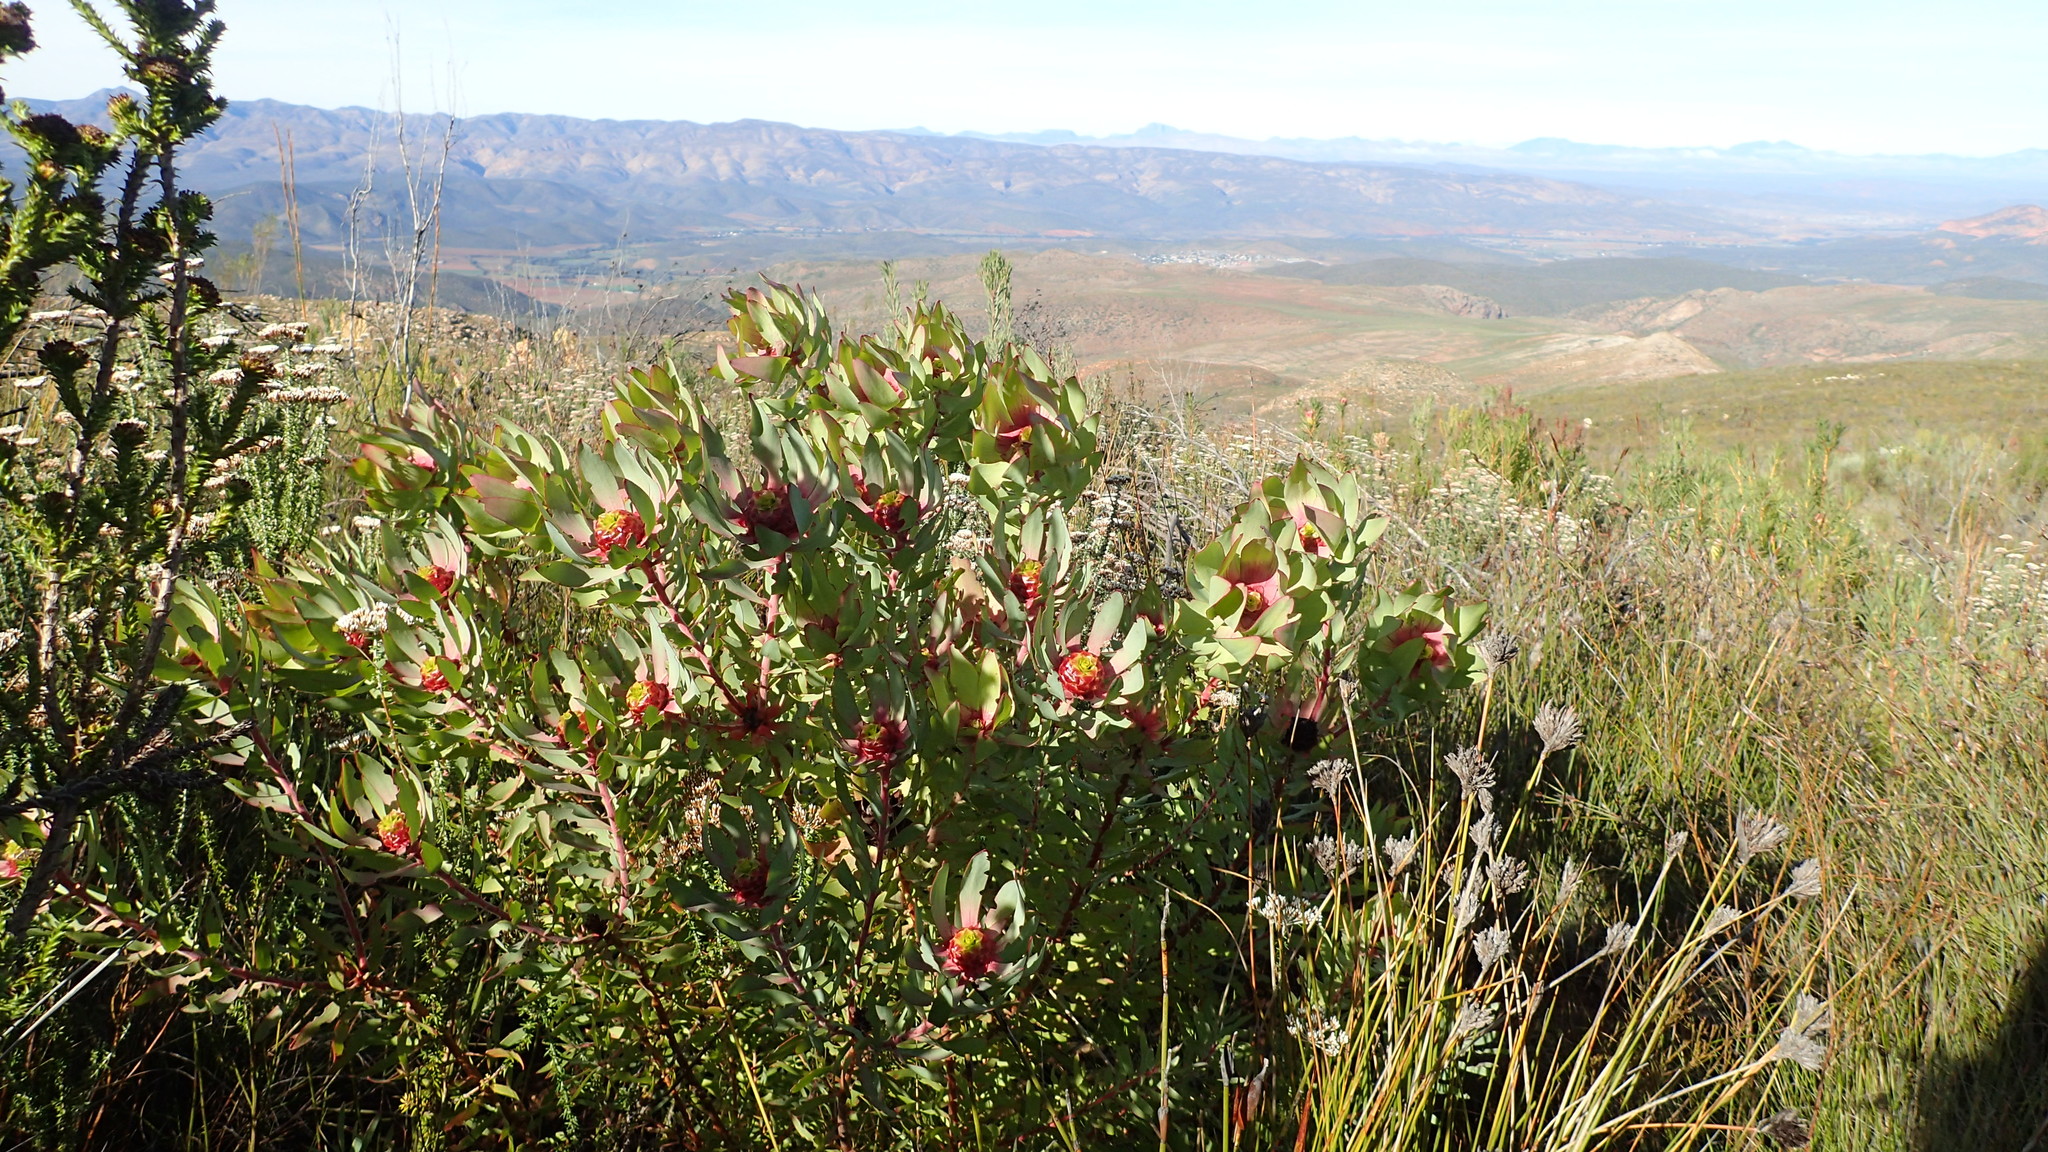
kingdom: Plantae
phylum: Tracheophyta
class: Magnoliopsida
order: Proteales
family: Proteaceae
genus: Leucadendron
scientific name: Leucadendron pubibracteolatum
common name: Purple-leaf conebush
